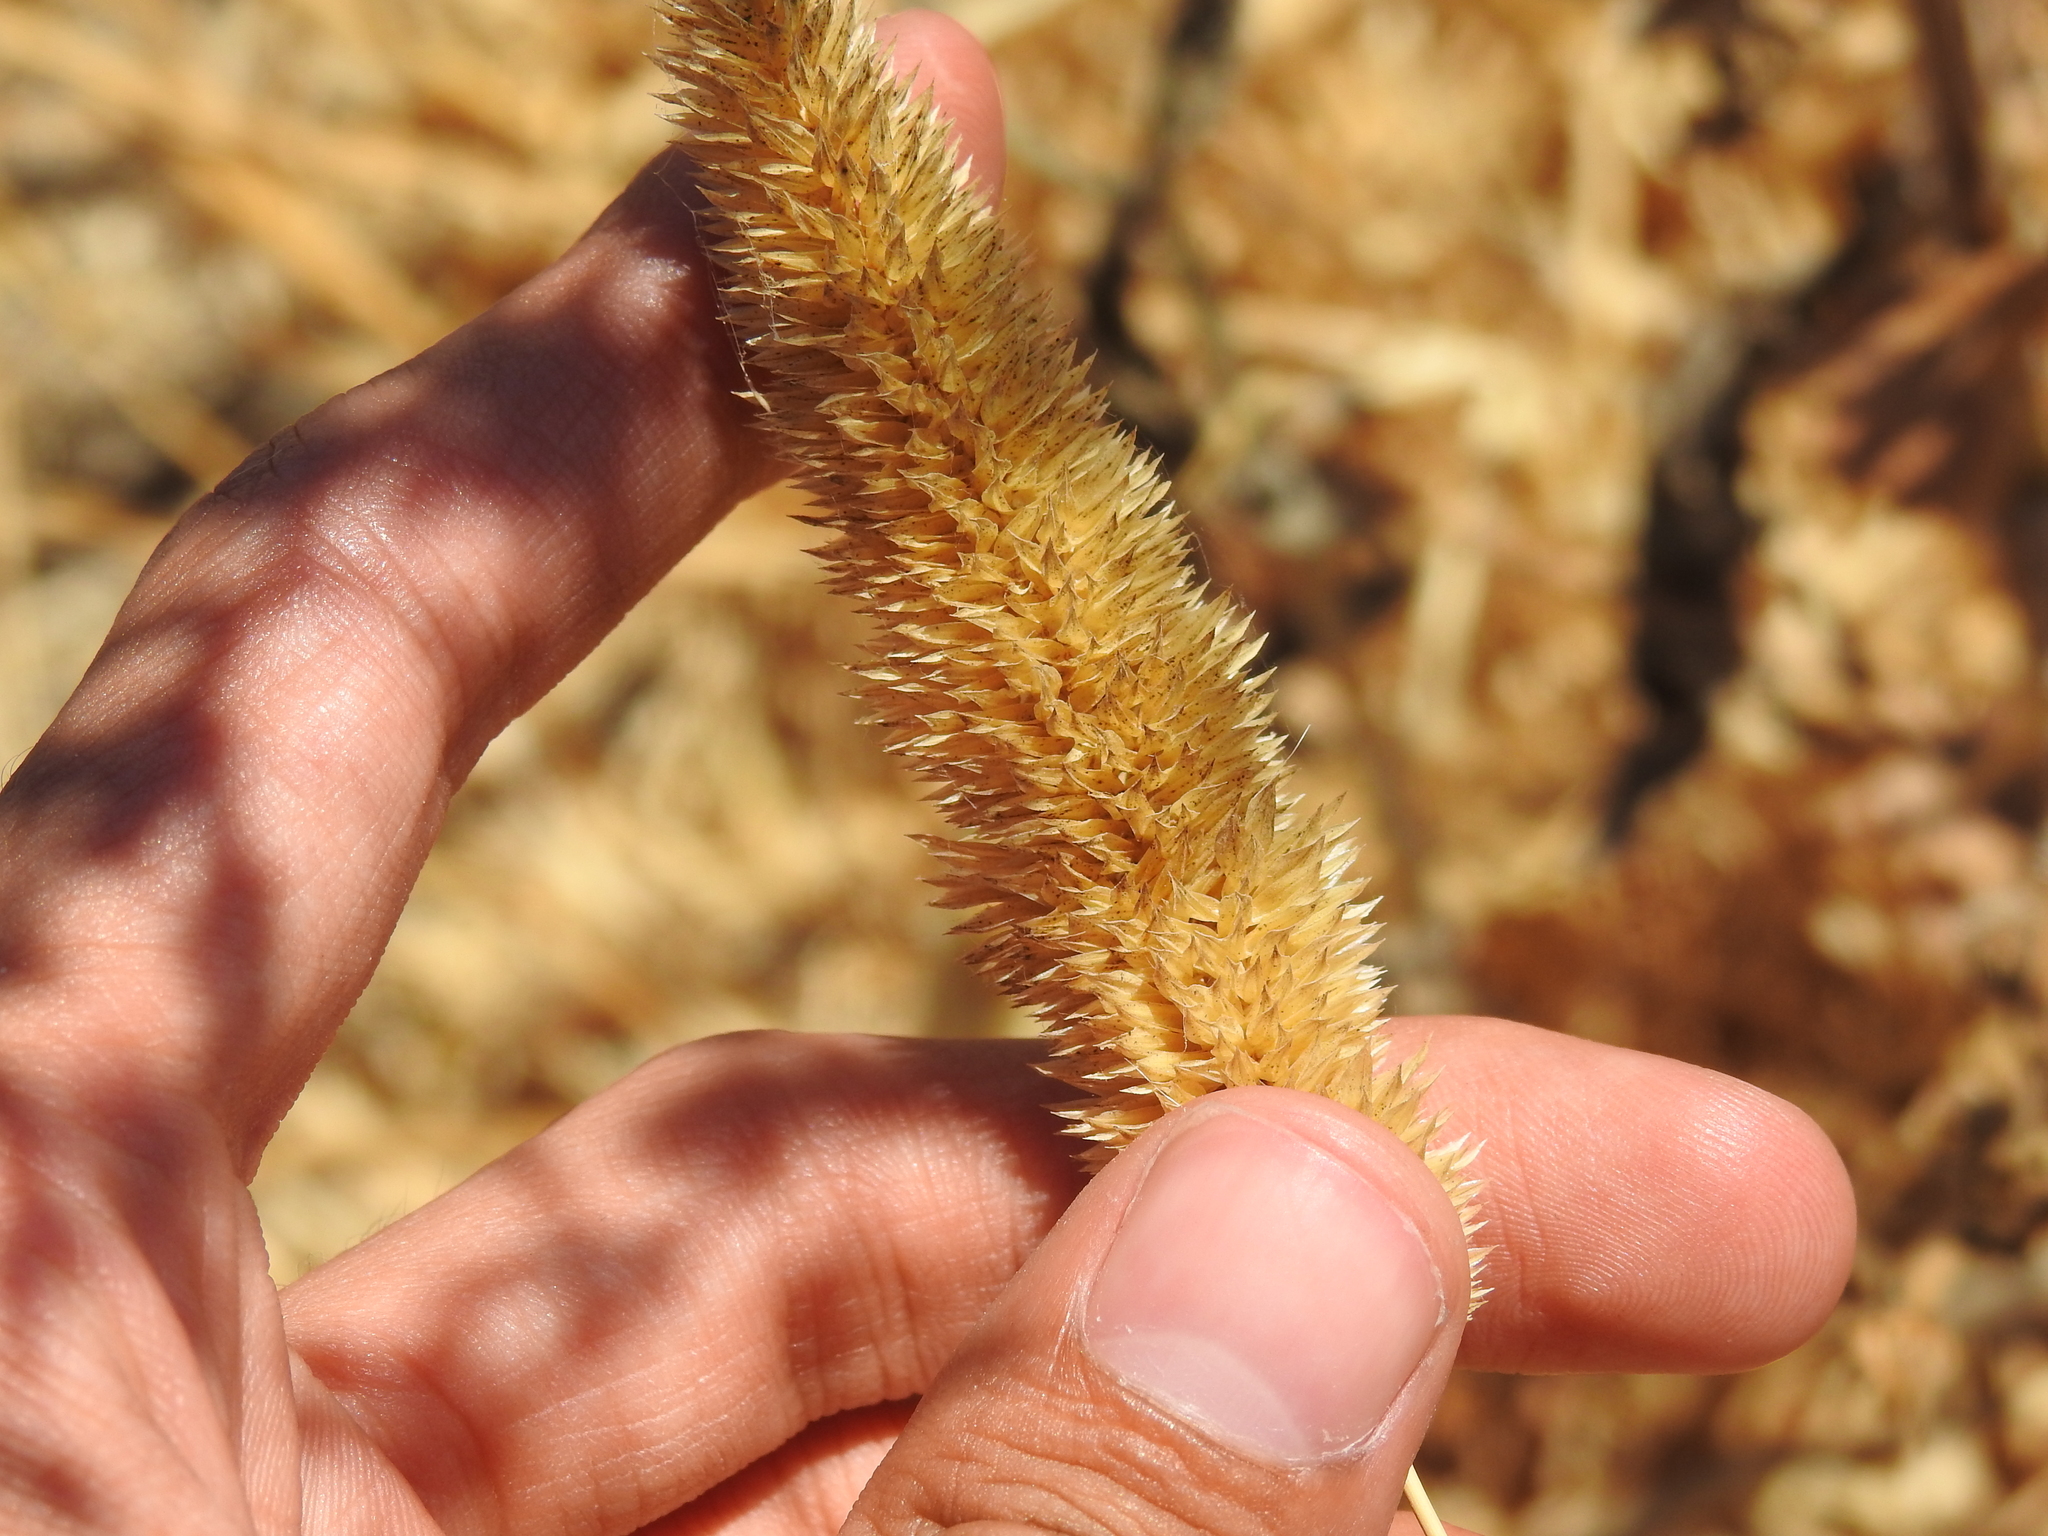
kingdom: Plantae
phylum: Tracheophyta
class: Liliopsida
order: Poales
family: Poaceae
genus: Phalaris
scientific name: Phalaris aquatica
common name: Bulbous canary-grass
